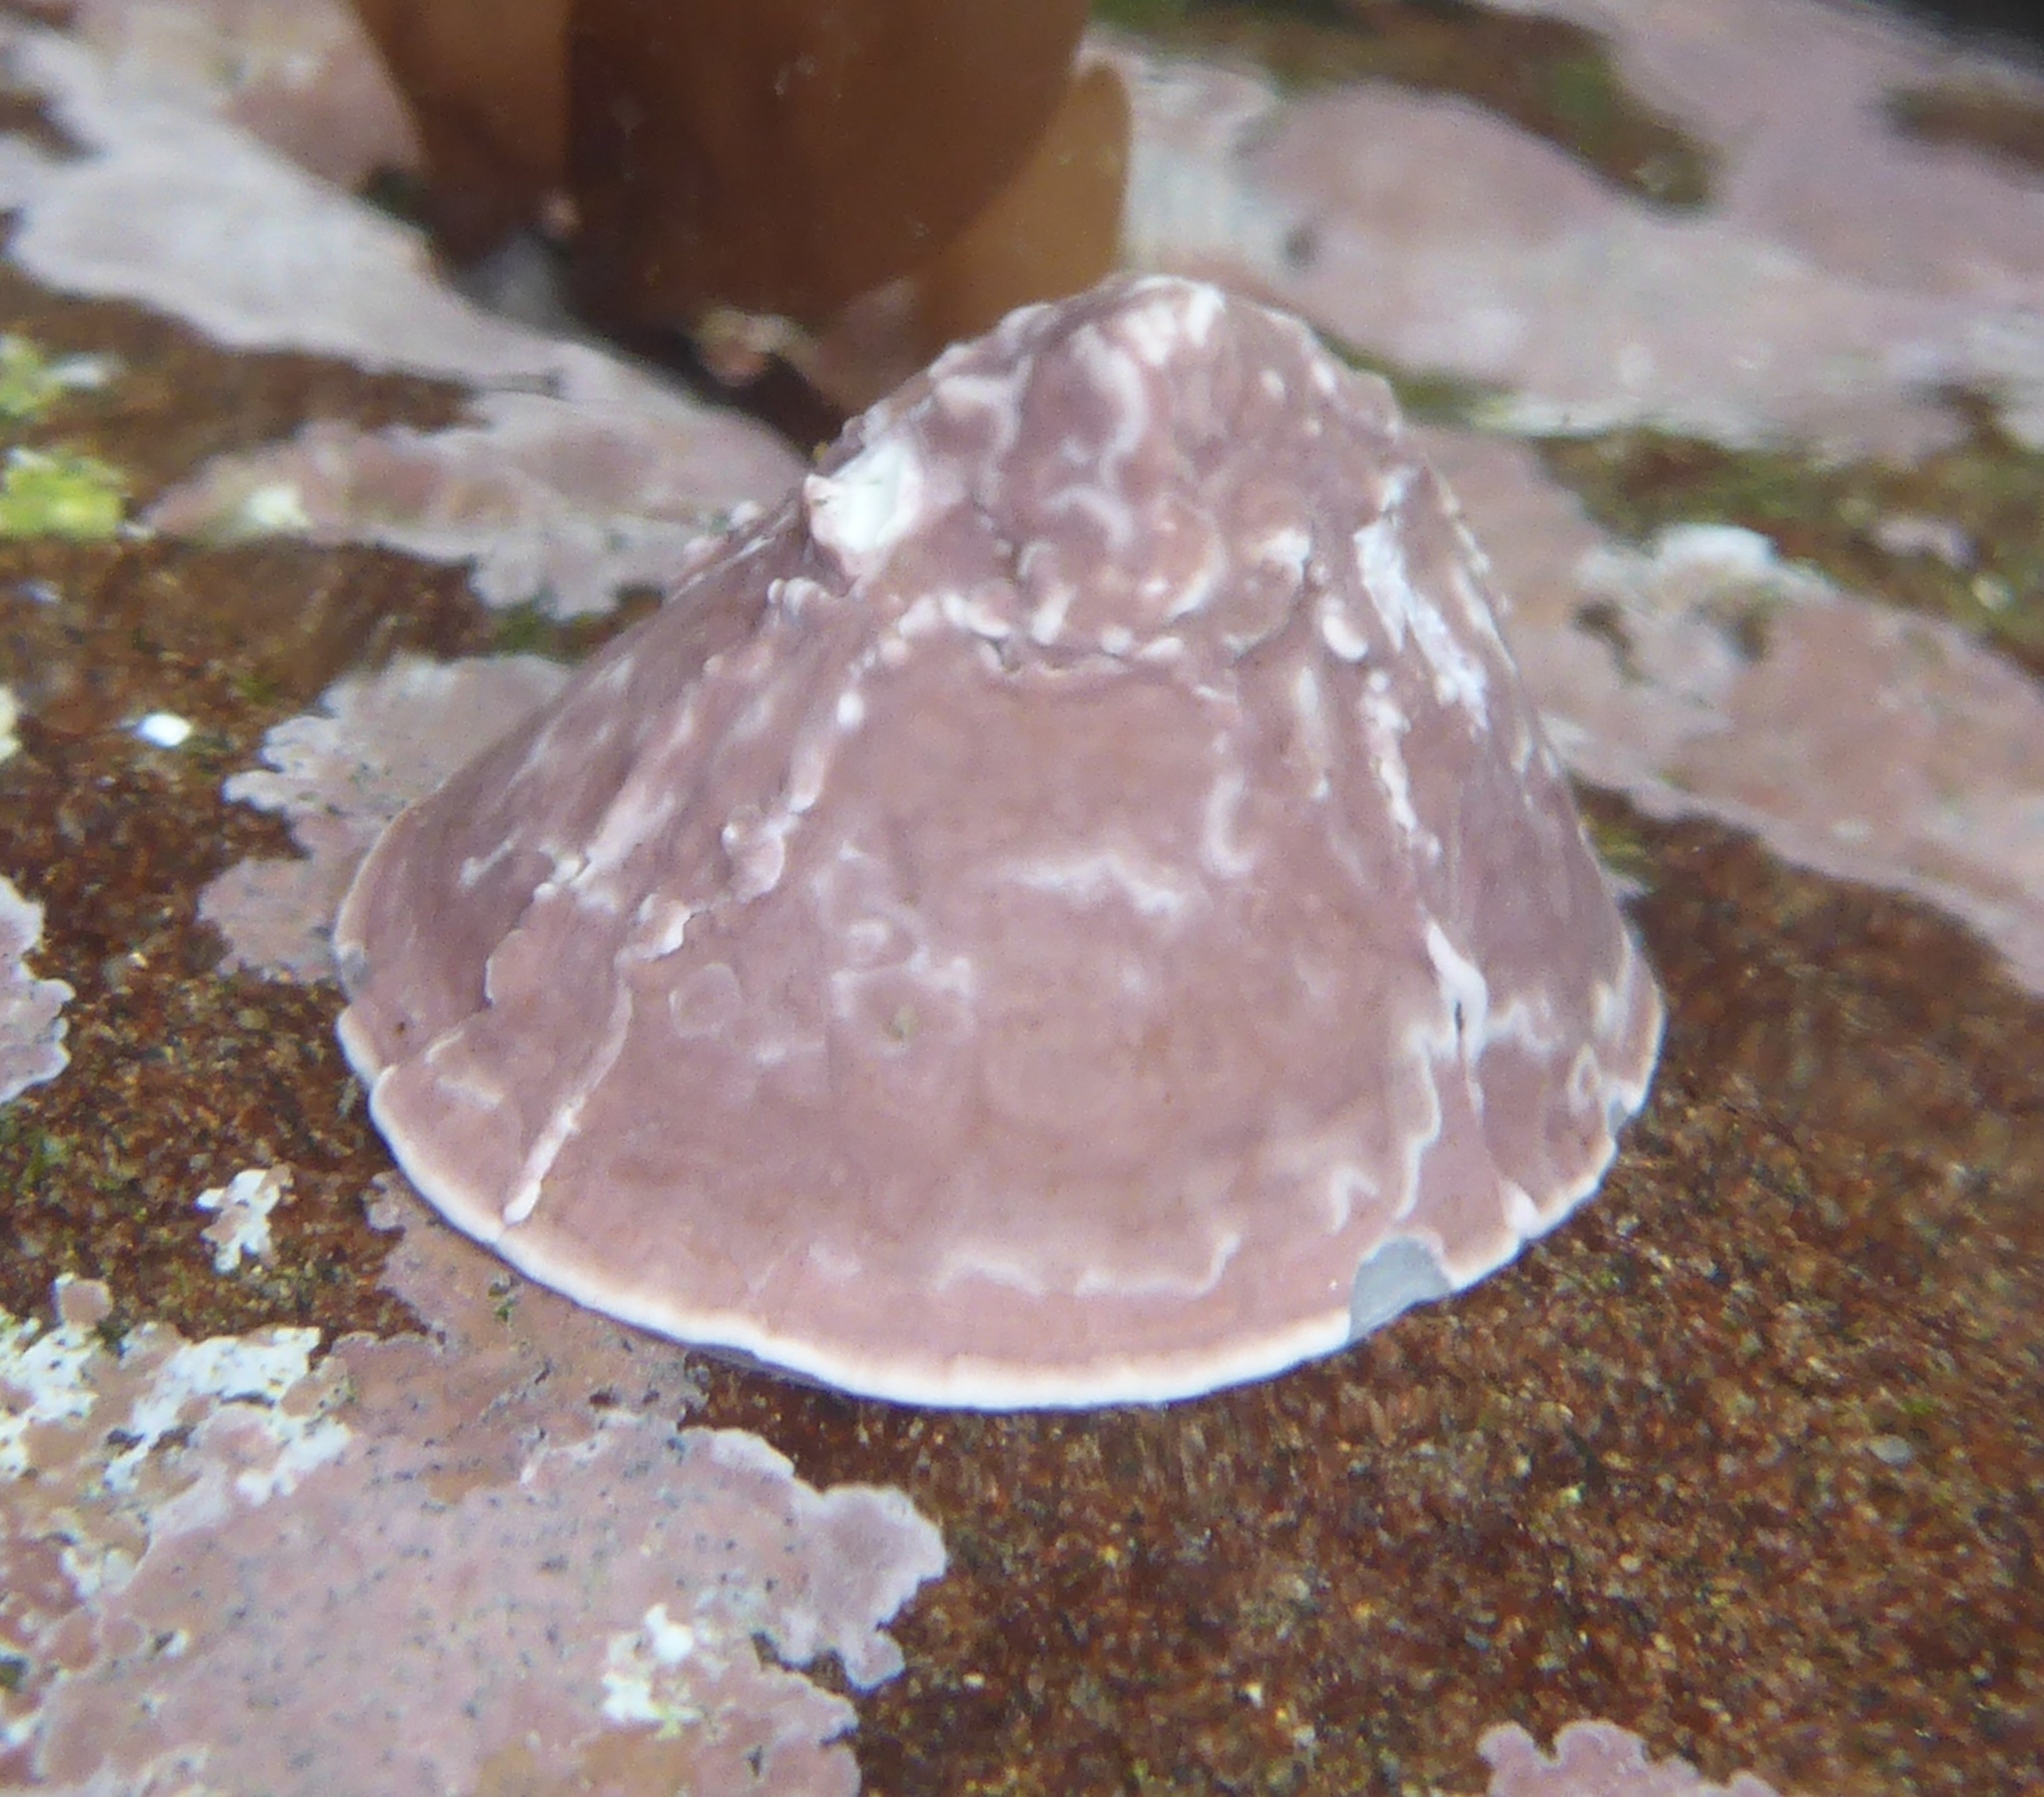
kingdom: Animalia
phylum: Mollusca
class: Gastropoda
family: Acmaeidae
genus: Acmaea
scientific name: Acmaea mitra
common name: Pacific white cap limpet
